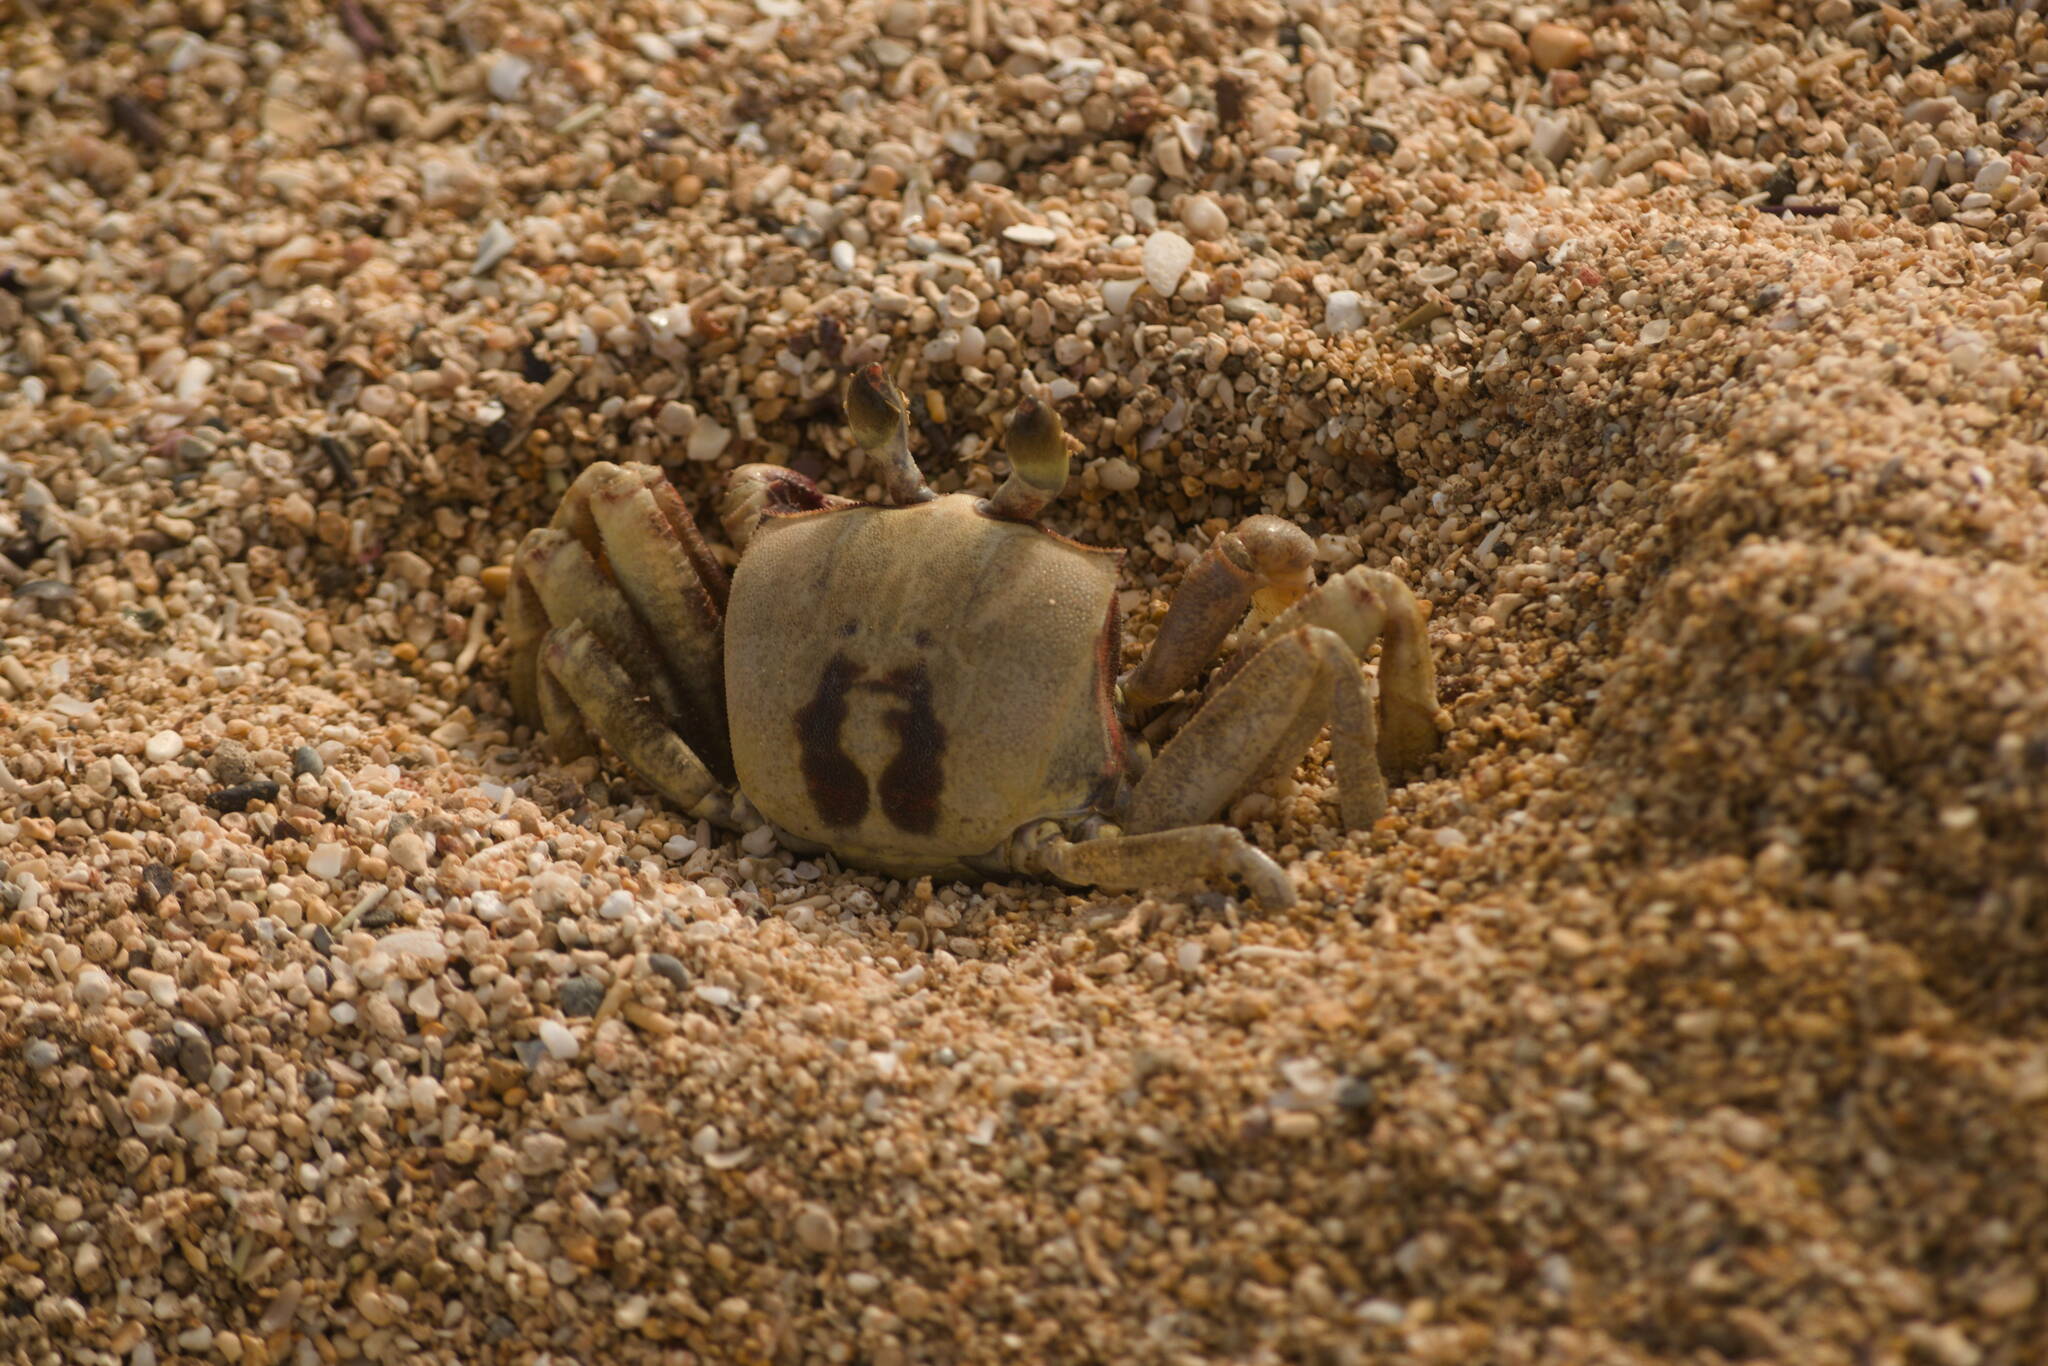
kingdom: Animalia
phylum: Arthropoda
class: Malacostraca
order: Decapoda
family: Ocypodidae
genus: Ocypode
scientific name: Ocypode ceratophthalmus
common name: Indo-pacific ghost crab
